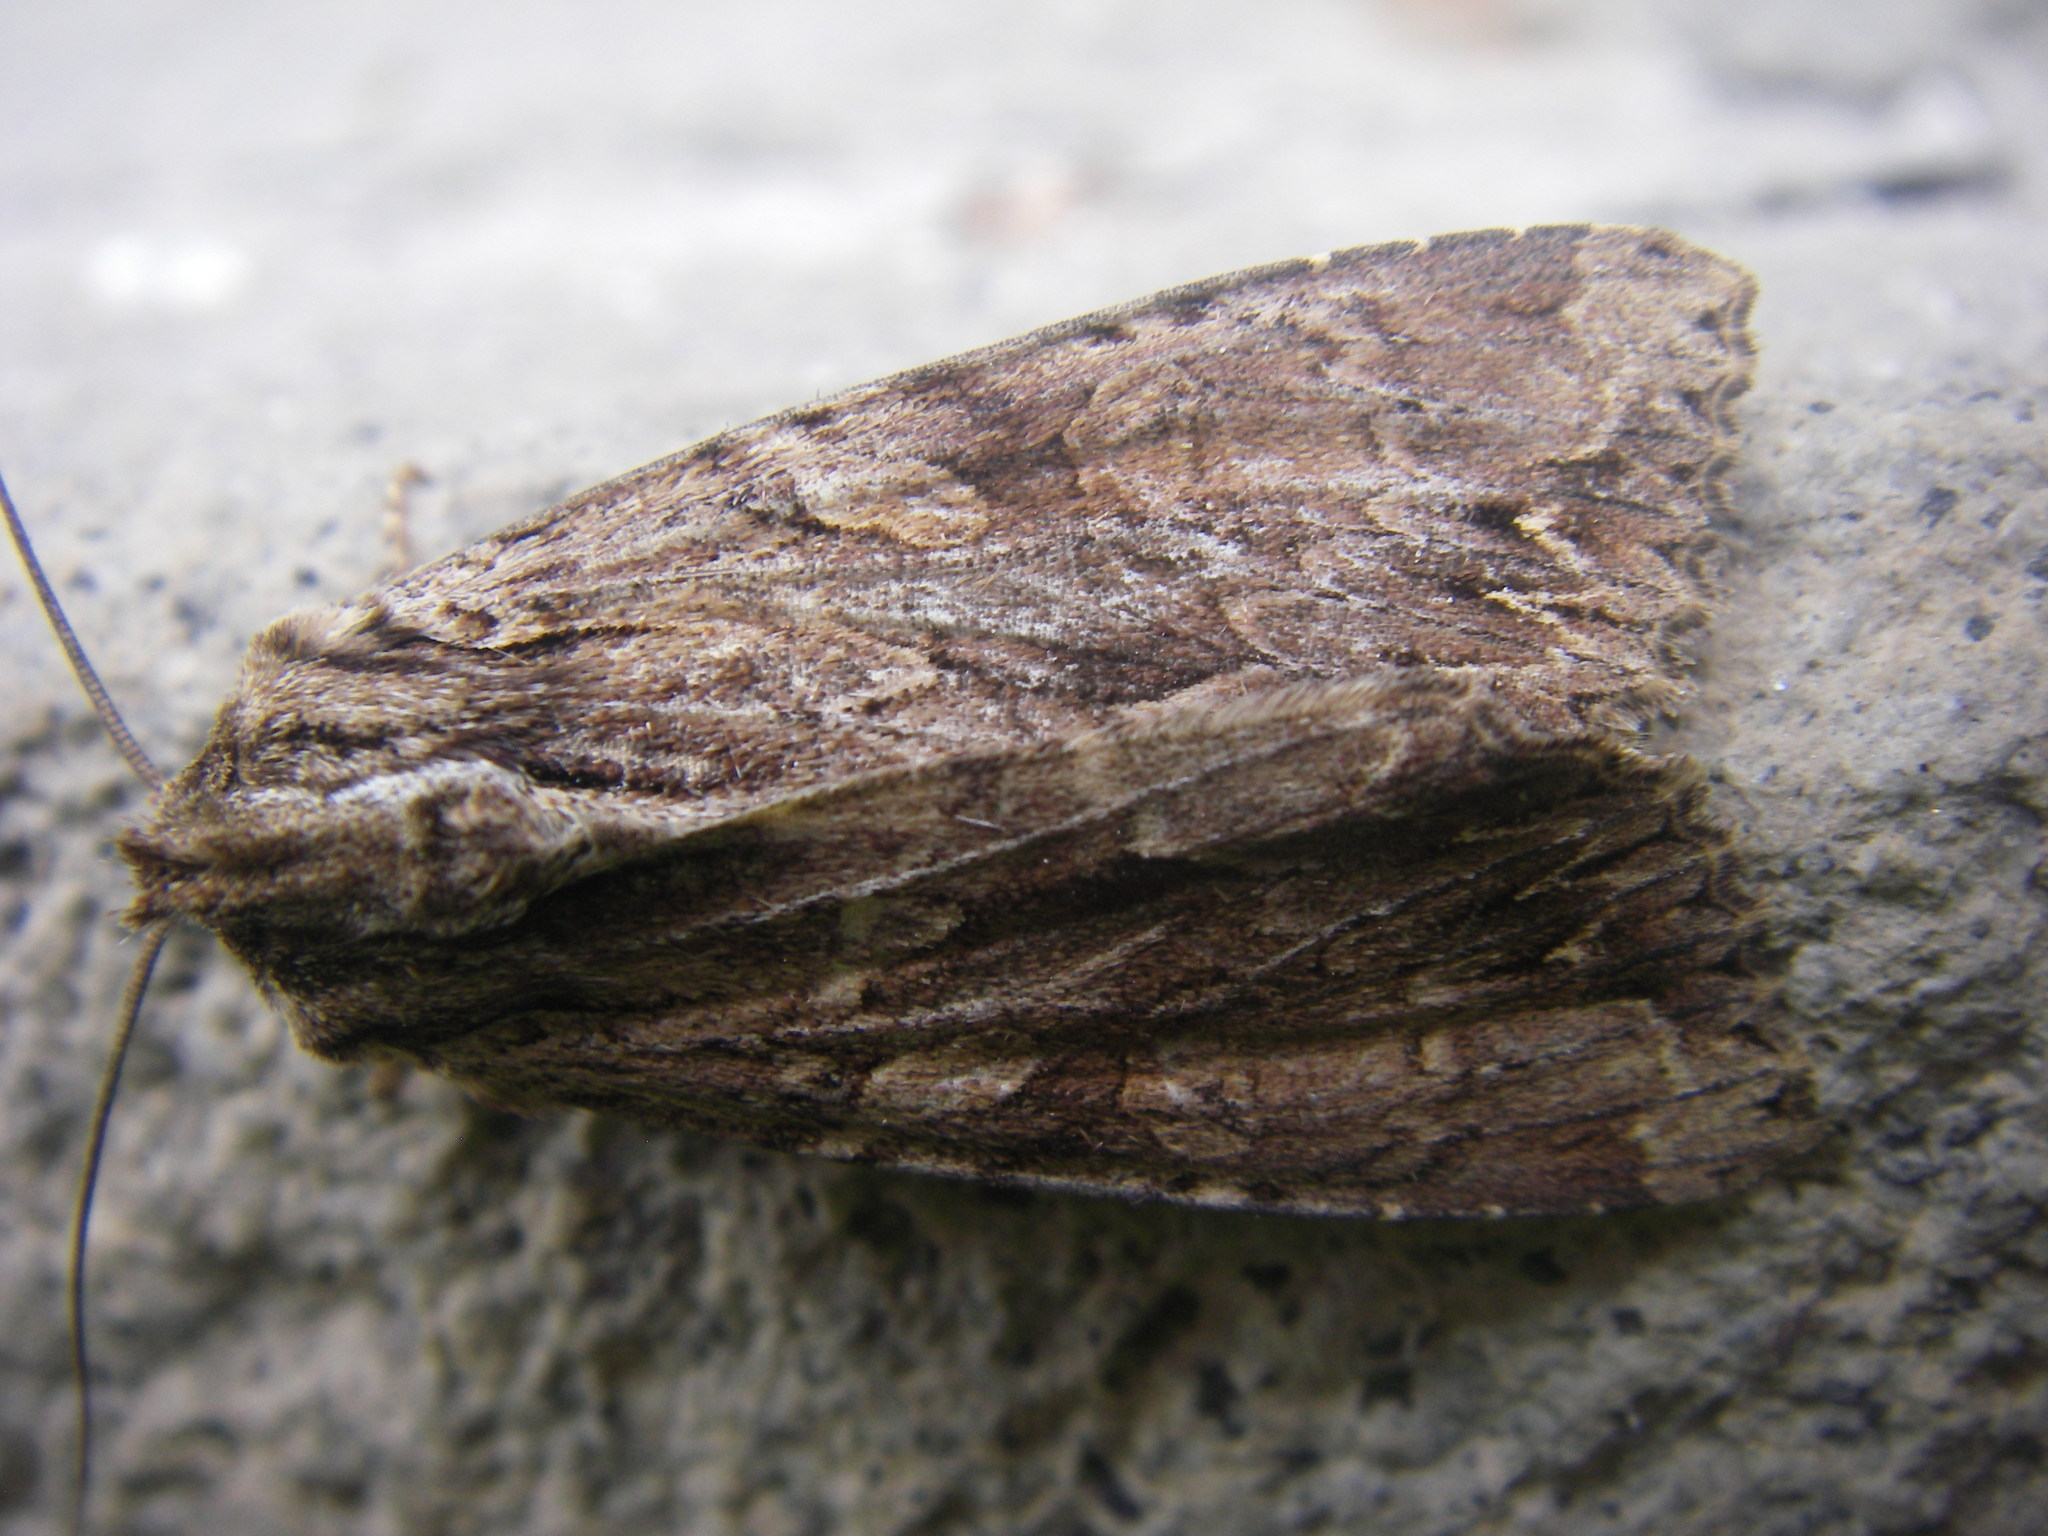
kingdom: Animalia
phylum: Arthropoda
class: Insecta
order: Lepidoptera
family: Noctuidae
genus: Apamea
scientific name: Apamea monoglypha
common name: Dark arches
